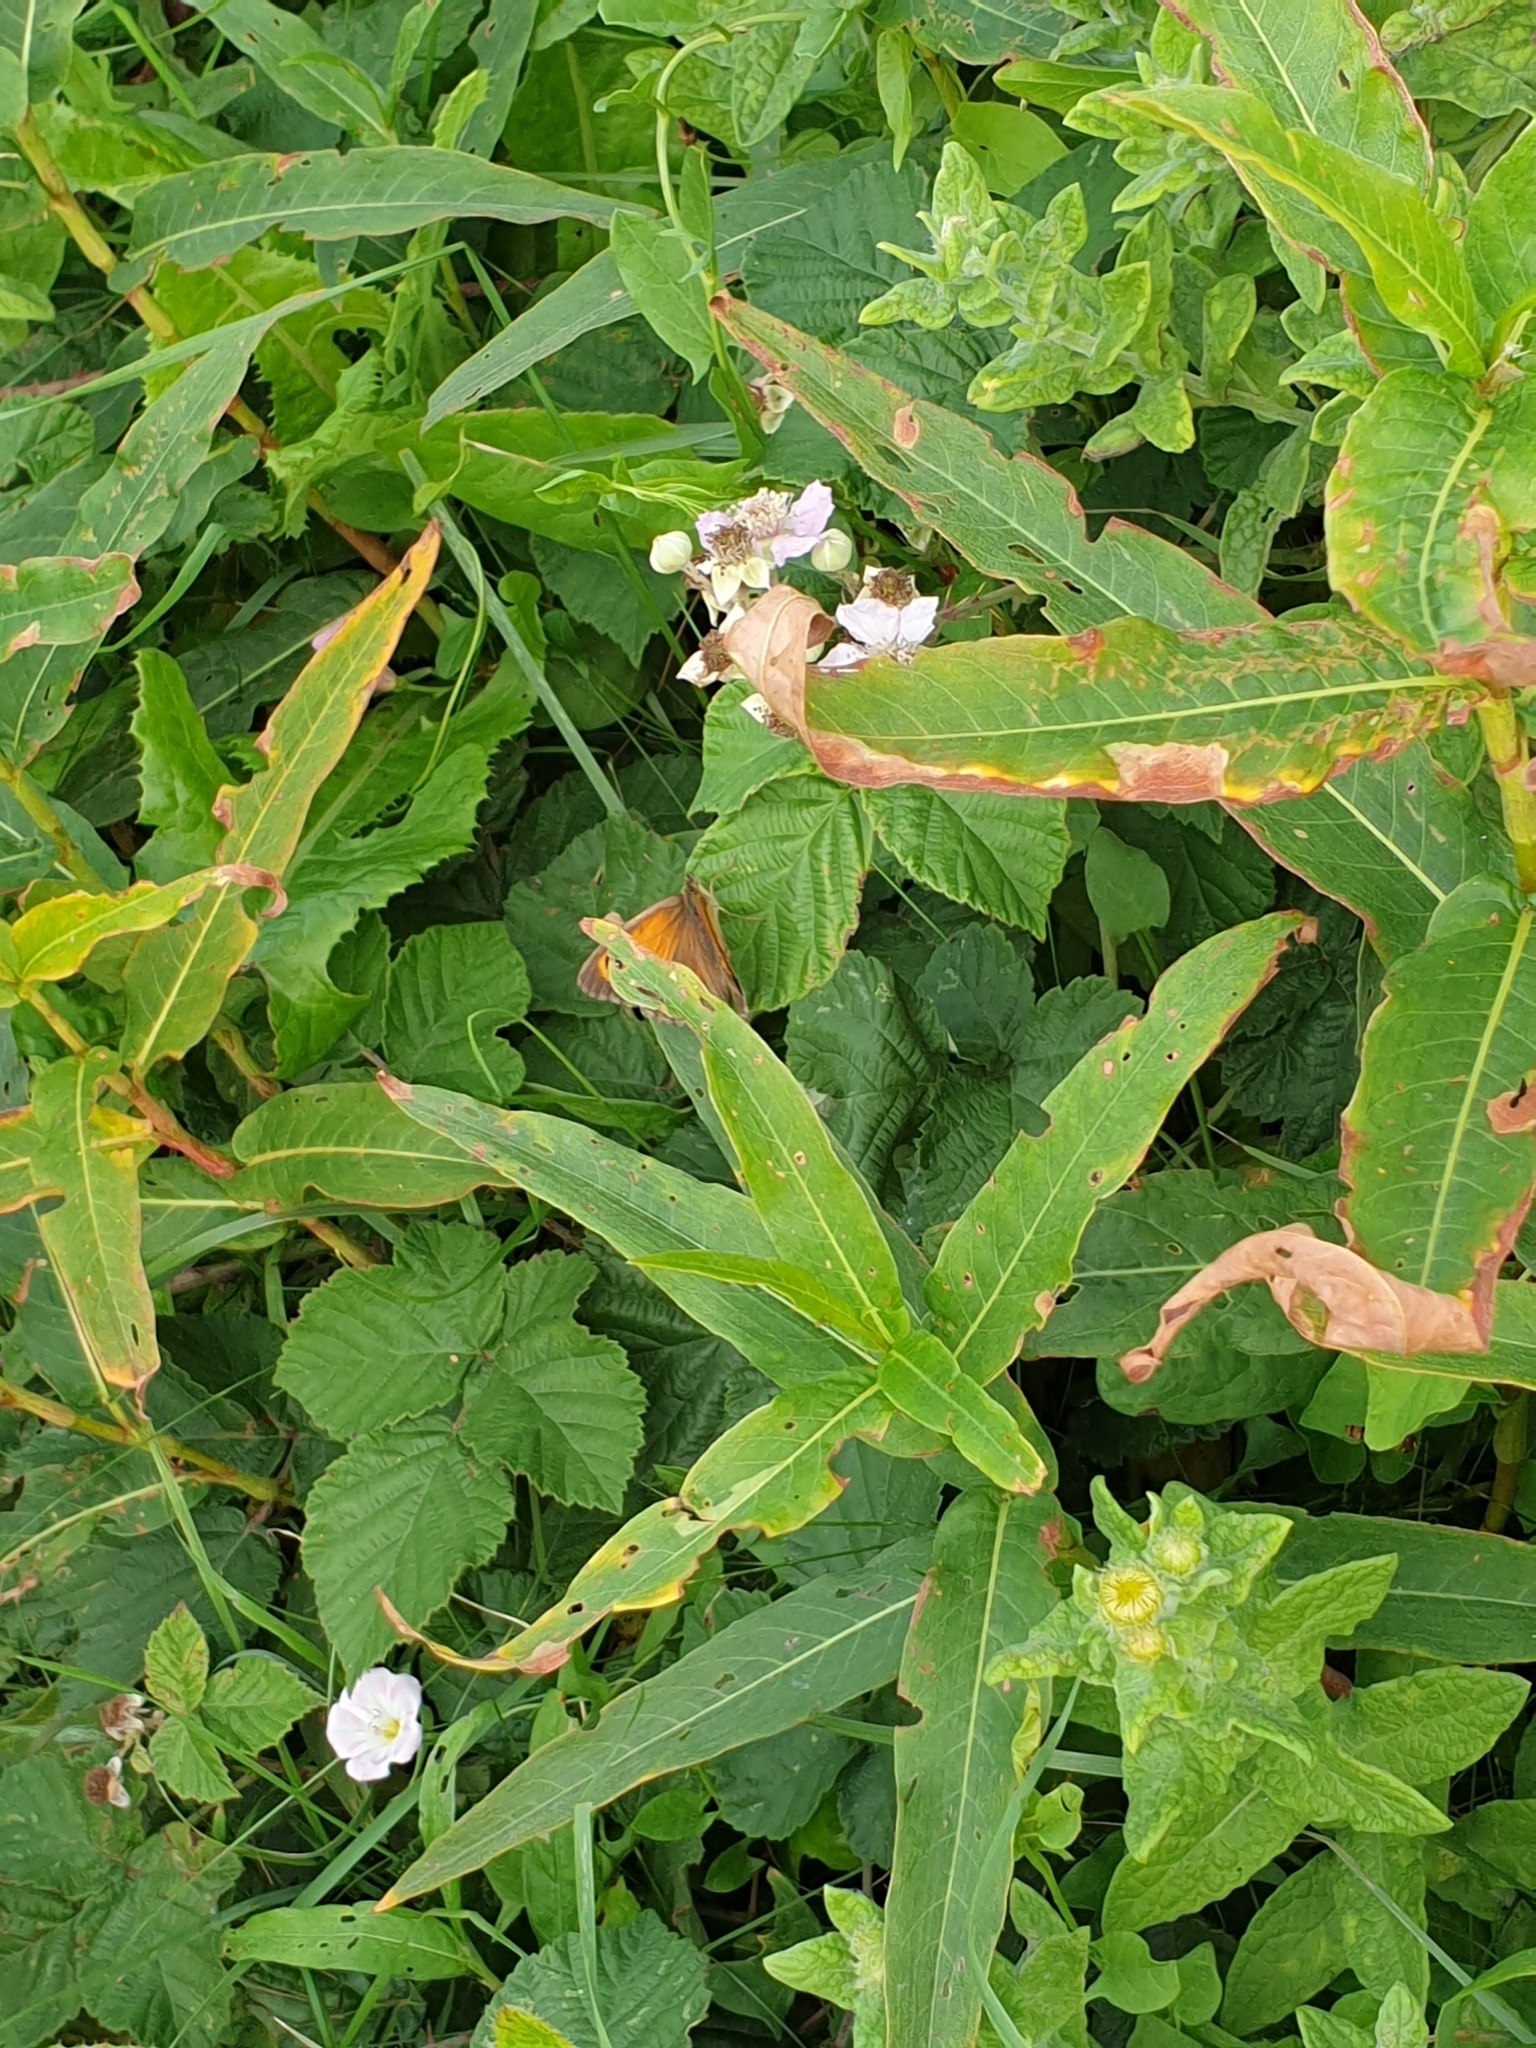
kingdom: Animalia
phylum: Arthropoda
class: Insecta
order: Lepidoptera
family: Nymphalidae
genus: Pyronia
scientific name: Pyronia tithonus
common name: Gatekeeper
